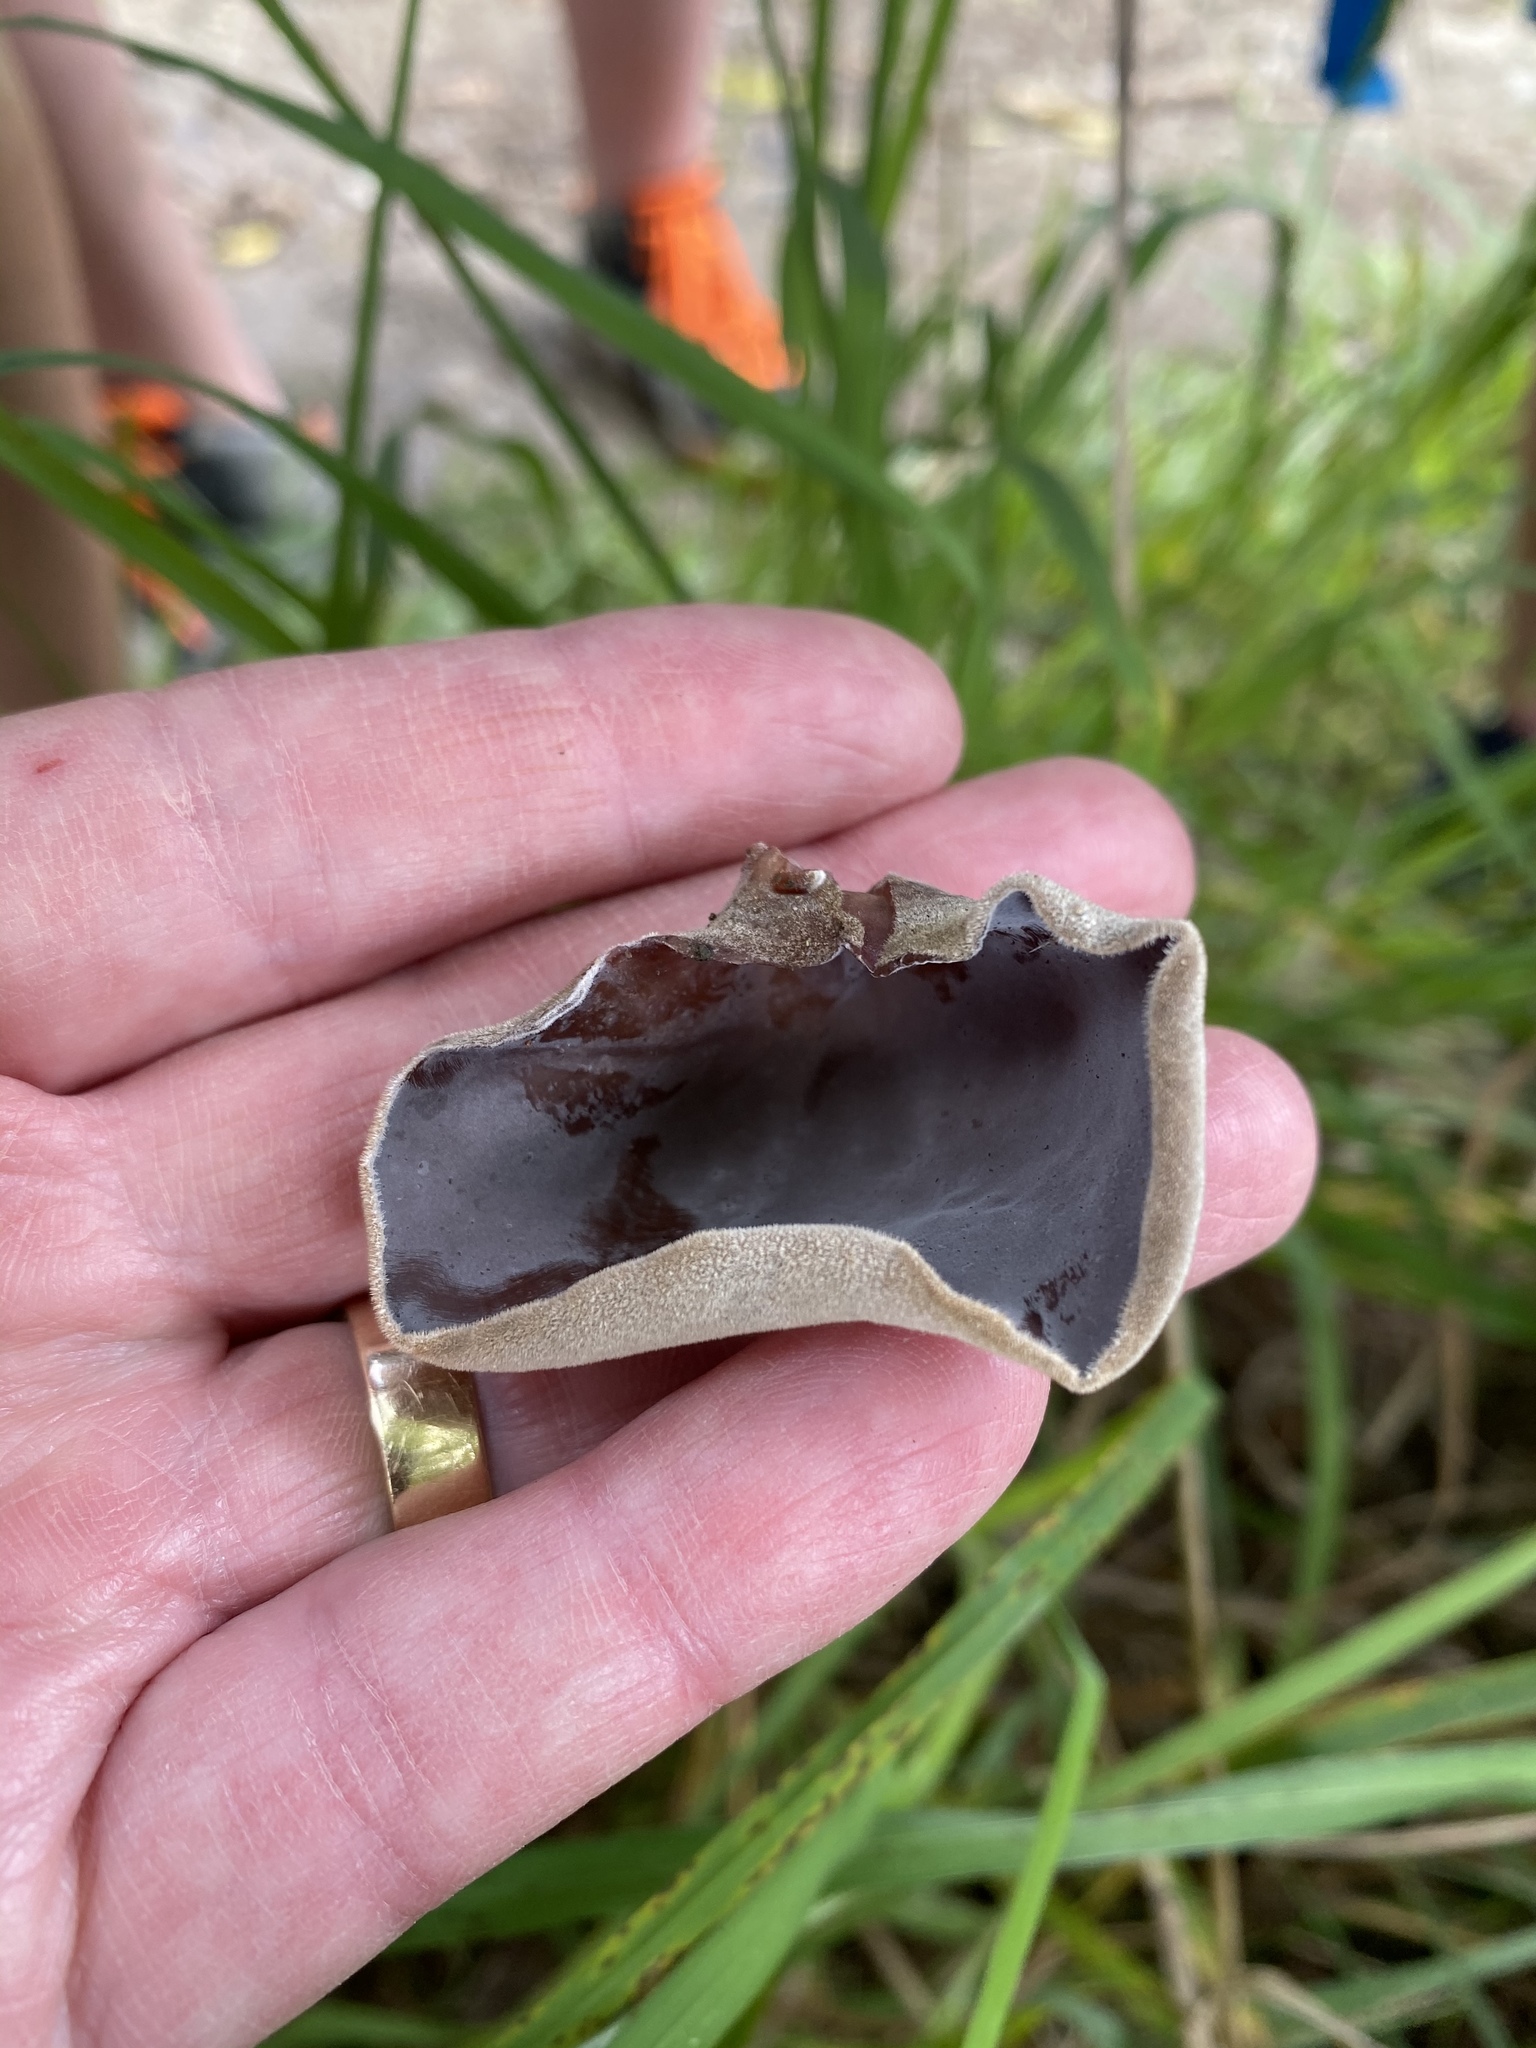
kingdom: Fungi
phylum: Basidiomycota
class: Agaricomycetes
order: Auriculariales
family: Auriculariaceae
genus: Auricularia
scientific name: Auricularia cornea
